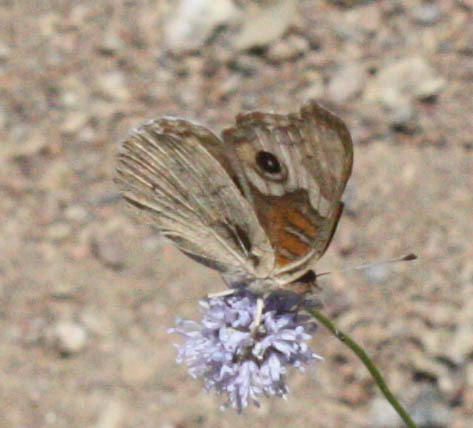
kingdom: Animalia
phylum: Arthropoda
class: Insecta
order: Lepidoptera
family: Nymphalidae
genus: Junonia
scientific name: Junonia grisea
